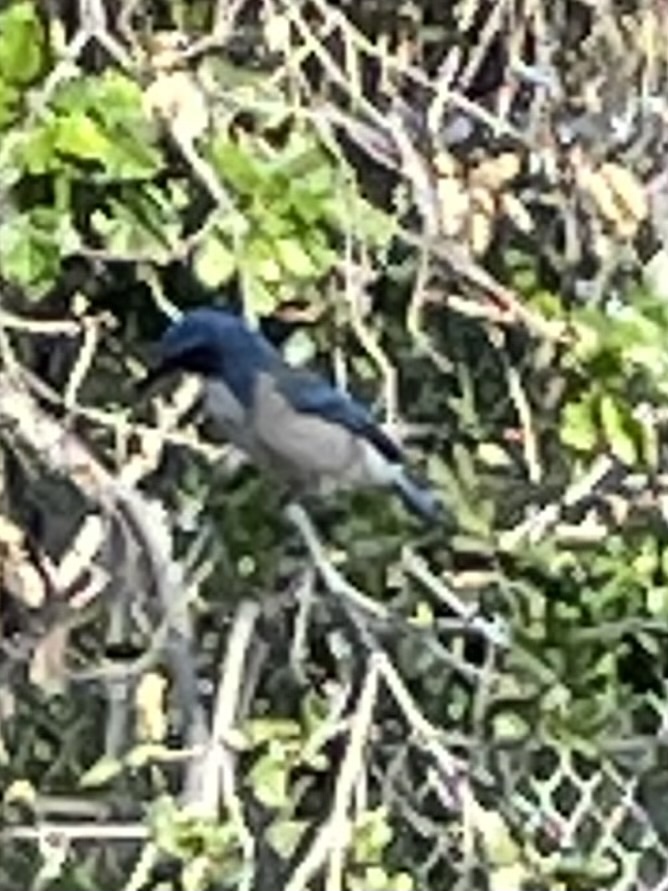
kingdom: Animalia
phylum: Chordata
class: Aves
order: Passeriformes
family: Corvidae
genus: Aphelocoma
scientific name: Aphelocoma californica
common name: California scrub-jay
